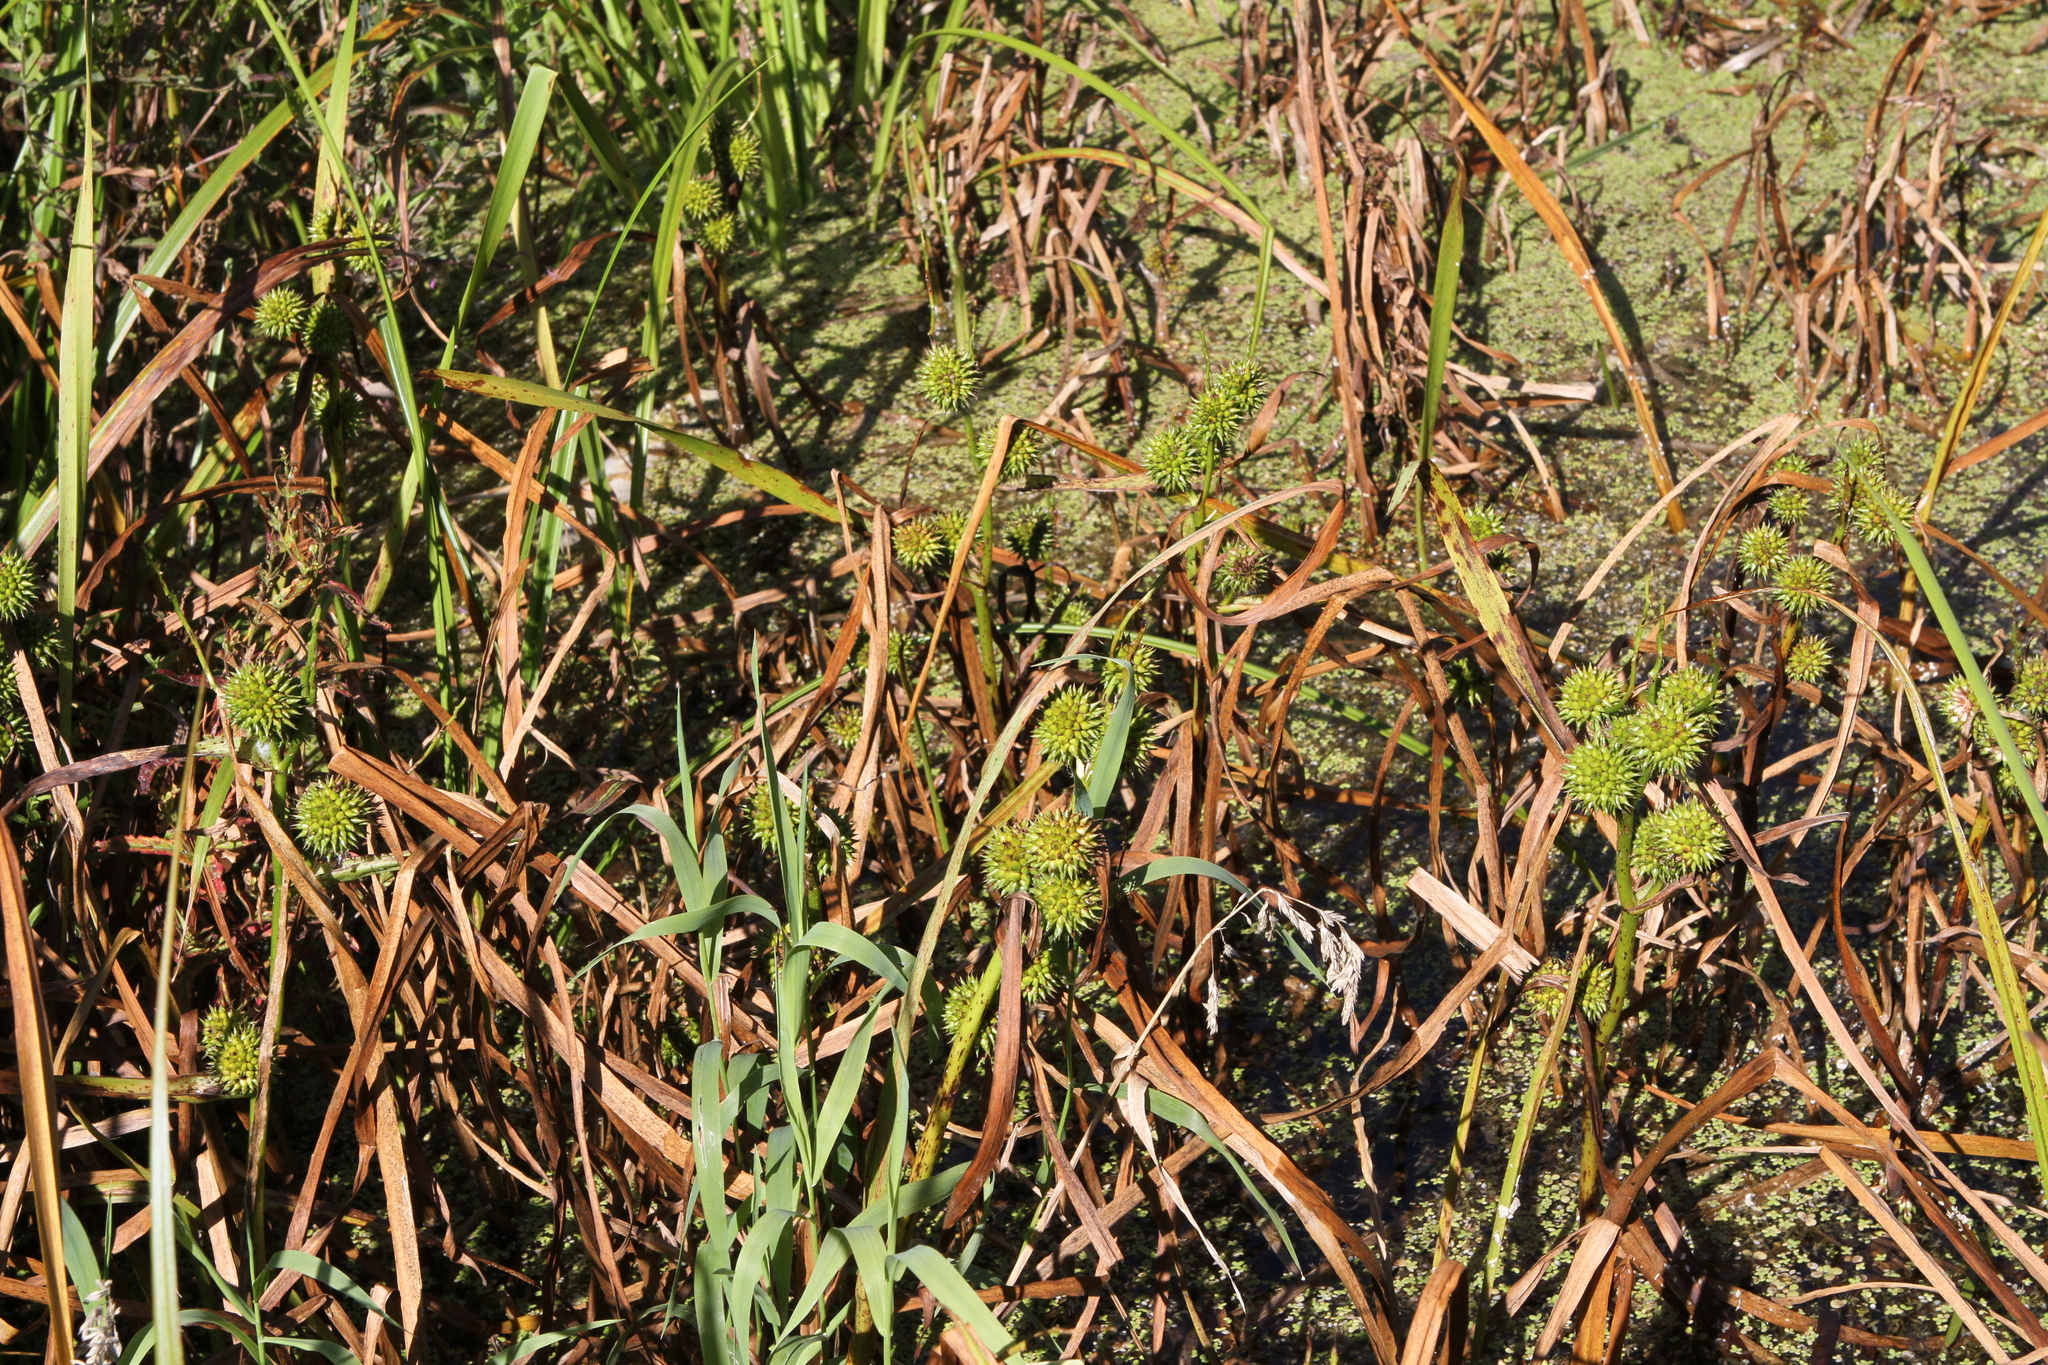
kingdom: Plantae
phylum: Tracheophyta
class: Liliopsida
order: Poales
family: Typhaceae
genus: Sparganium
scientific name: Sparganium erectum
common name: Branched bur-reed
